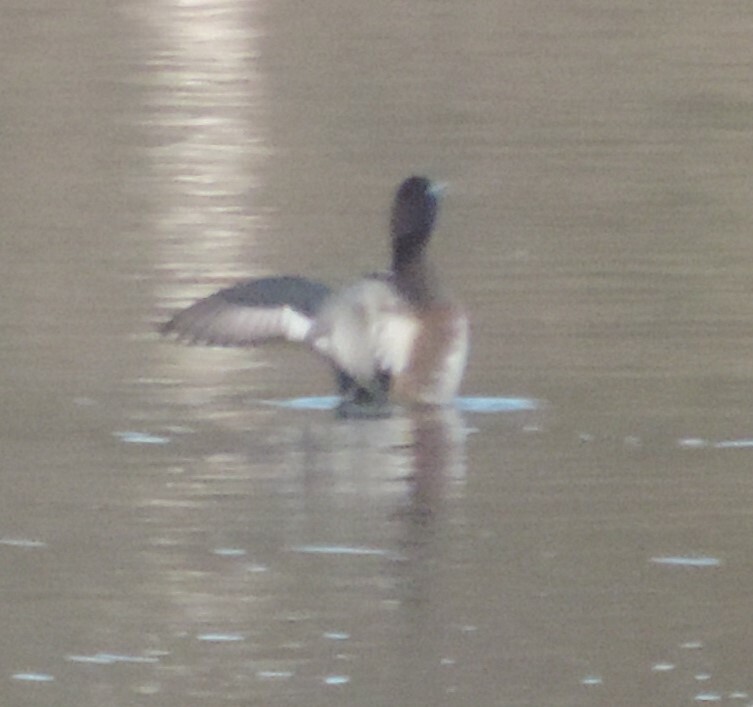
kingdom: Animalia
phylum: Chordata
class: Aves
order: Anseriformes
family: Anatidae
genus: Aythya
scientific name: Aythya affinis
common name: Lesser scaup
